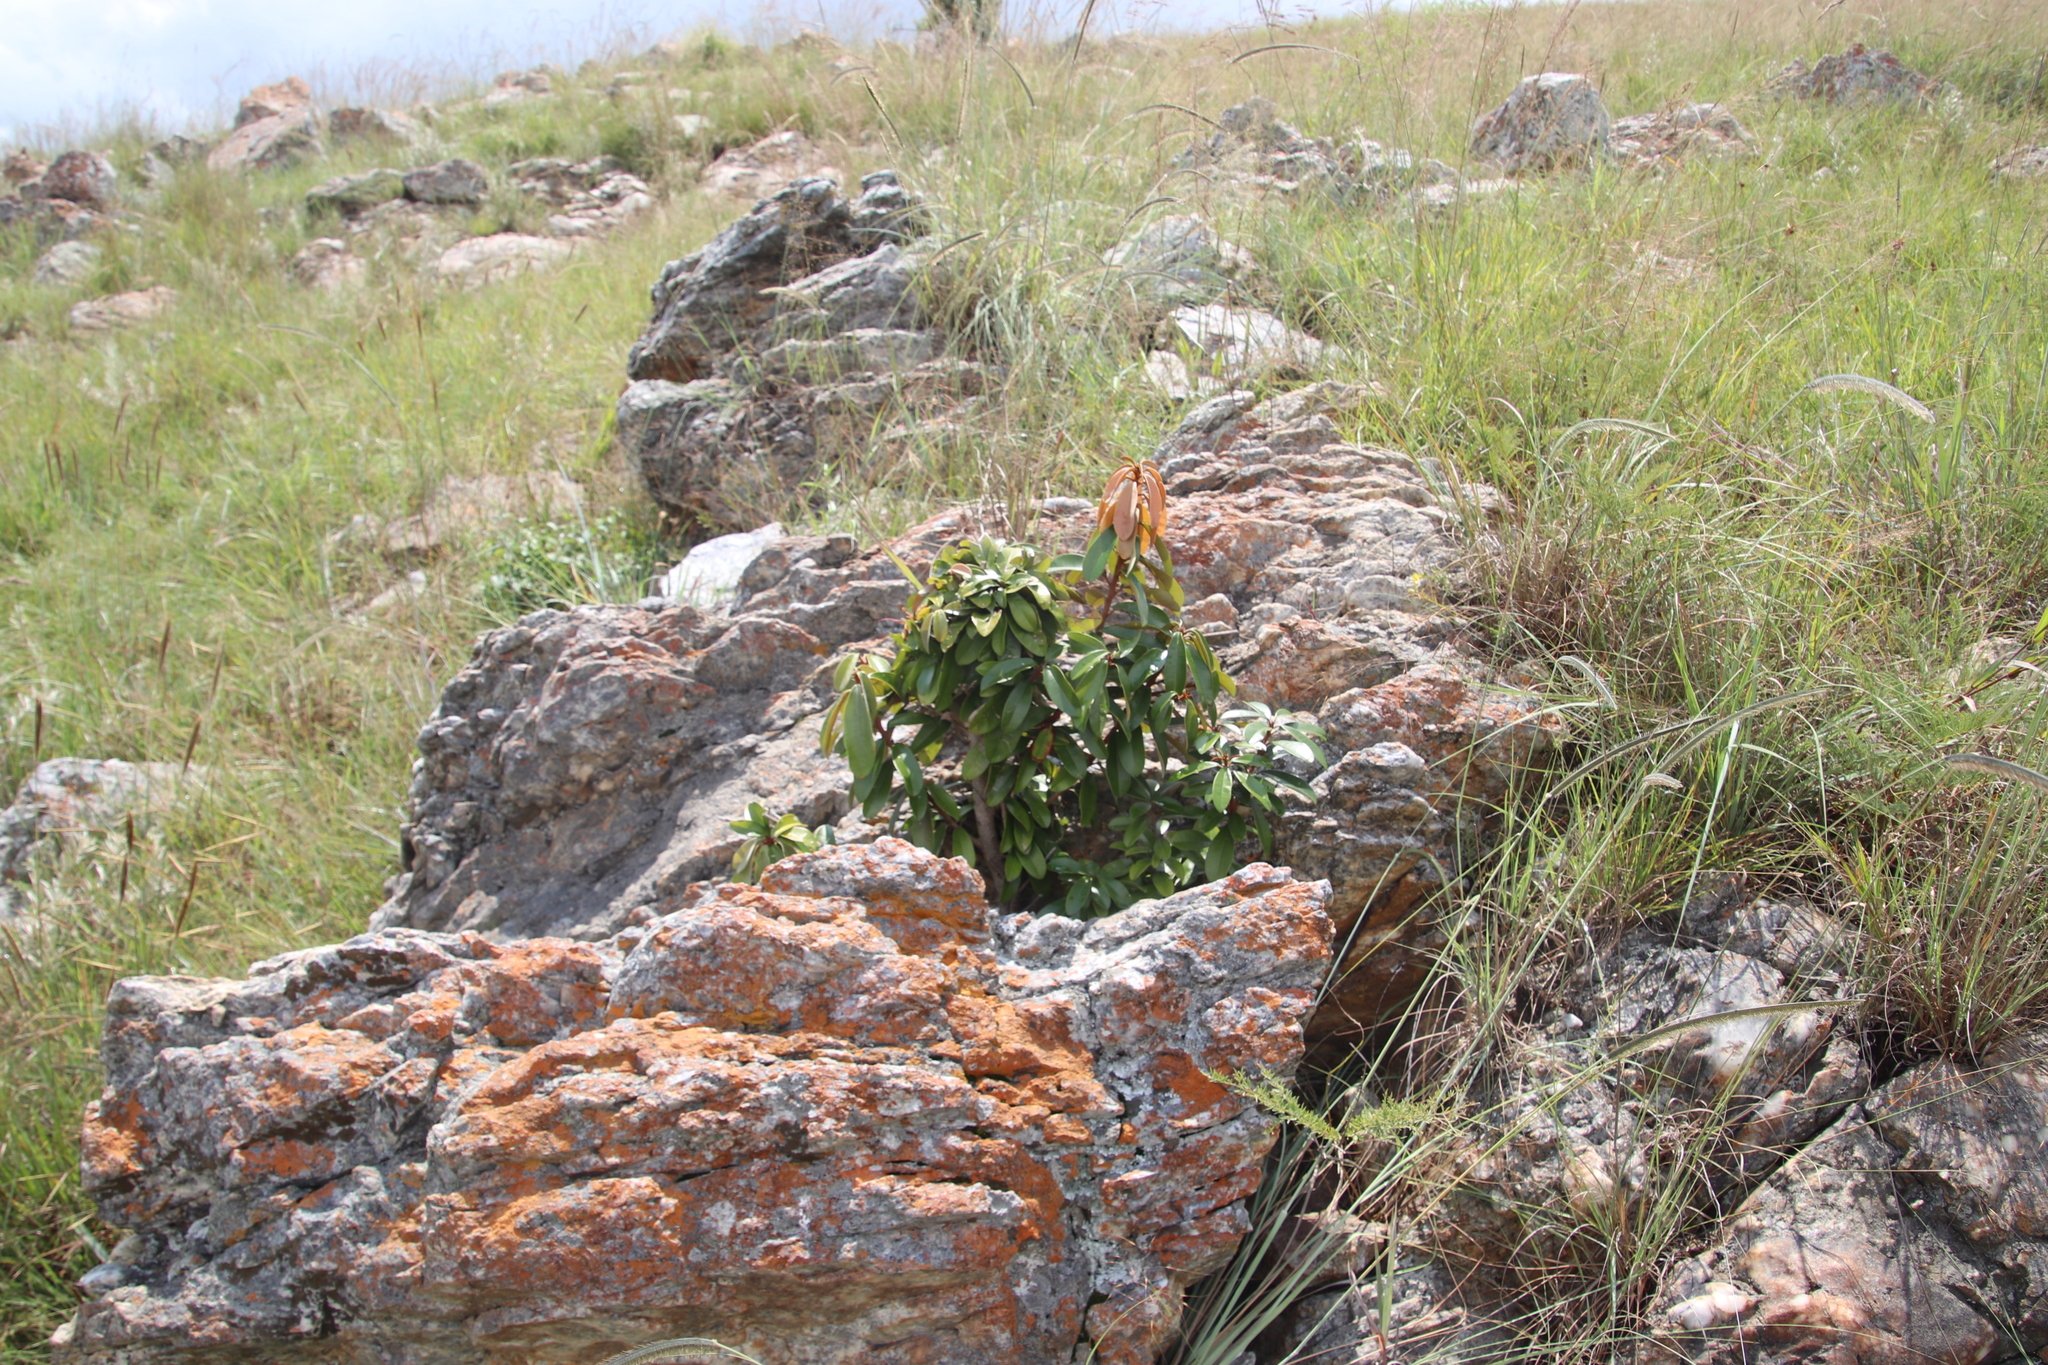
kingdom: Plantae
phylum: Tracheophyta
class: Magnoliopsida
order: Ericales
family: Sapotaceae
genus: Englerophytum
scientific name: Englerophytum magalismontanum
